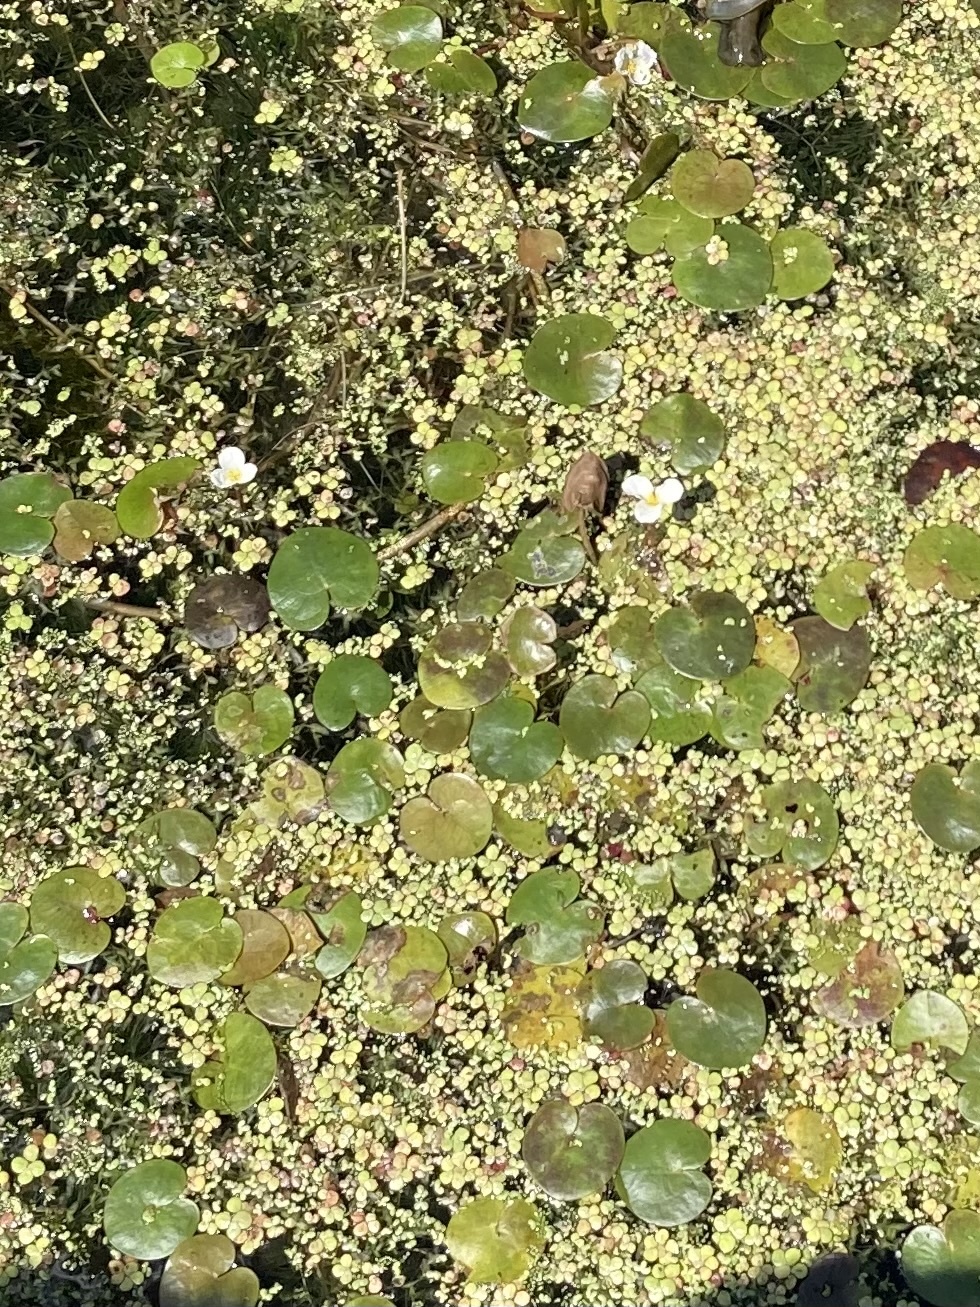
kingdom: Plantae
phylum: Tracheophyta
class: Liliopsida
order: Alismatales
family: Hydrocharitaceae
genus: Hydrocharis
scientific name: Hydrocharis morsus-ranae
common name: Frogbit
